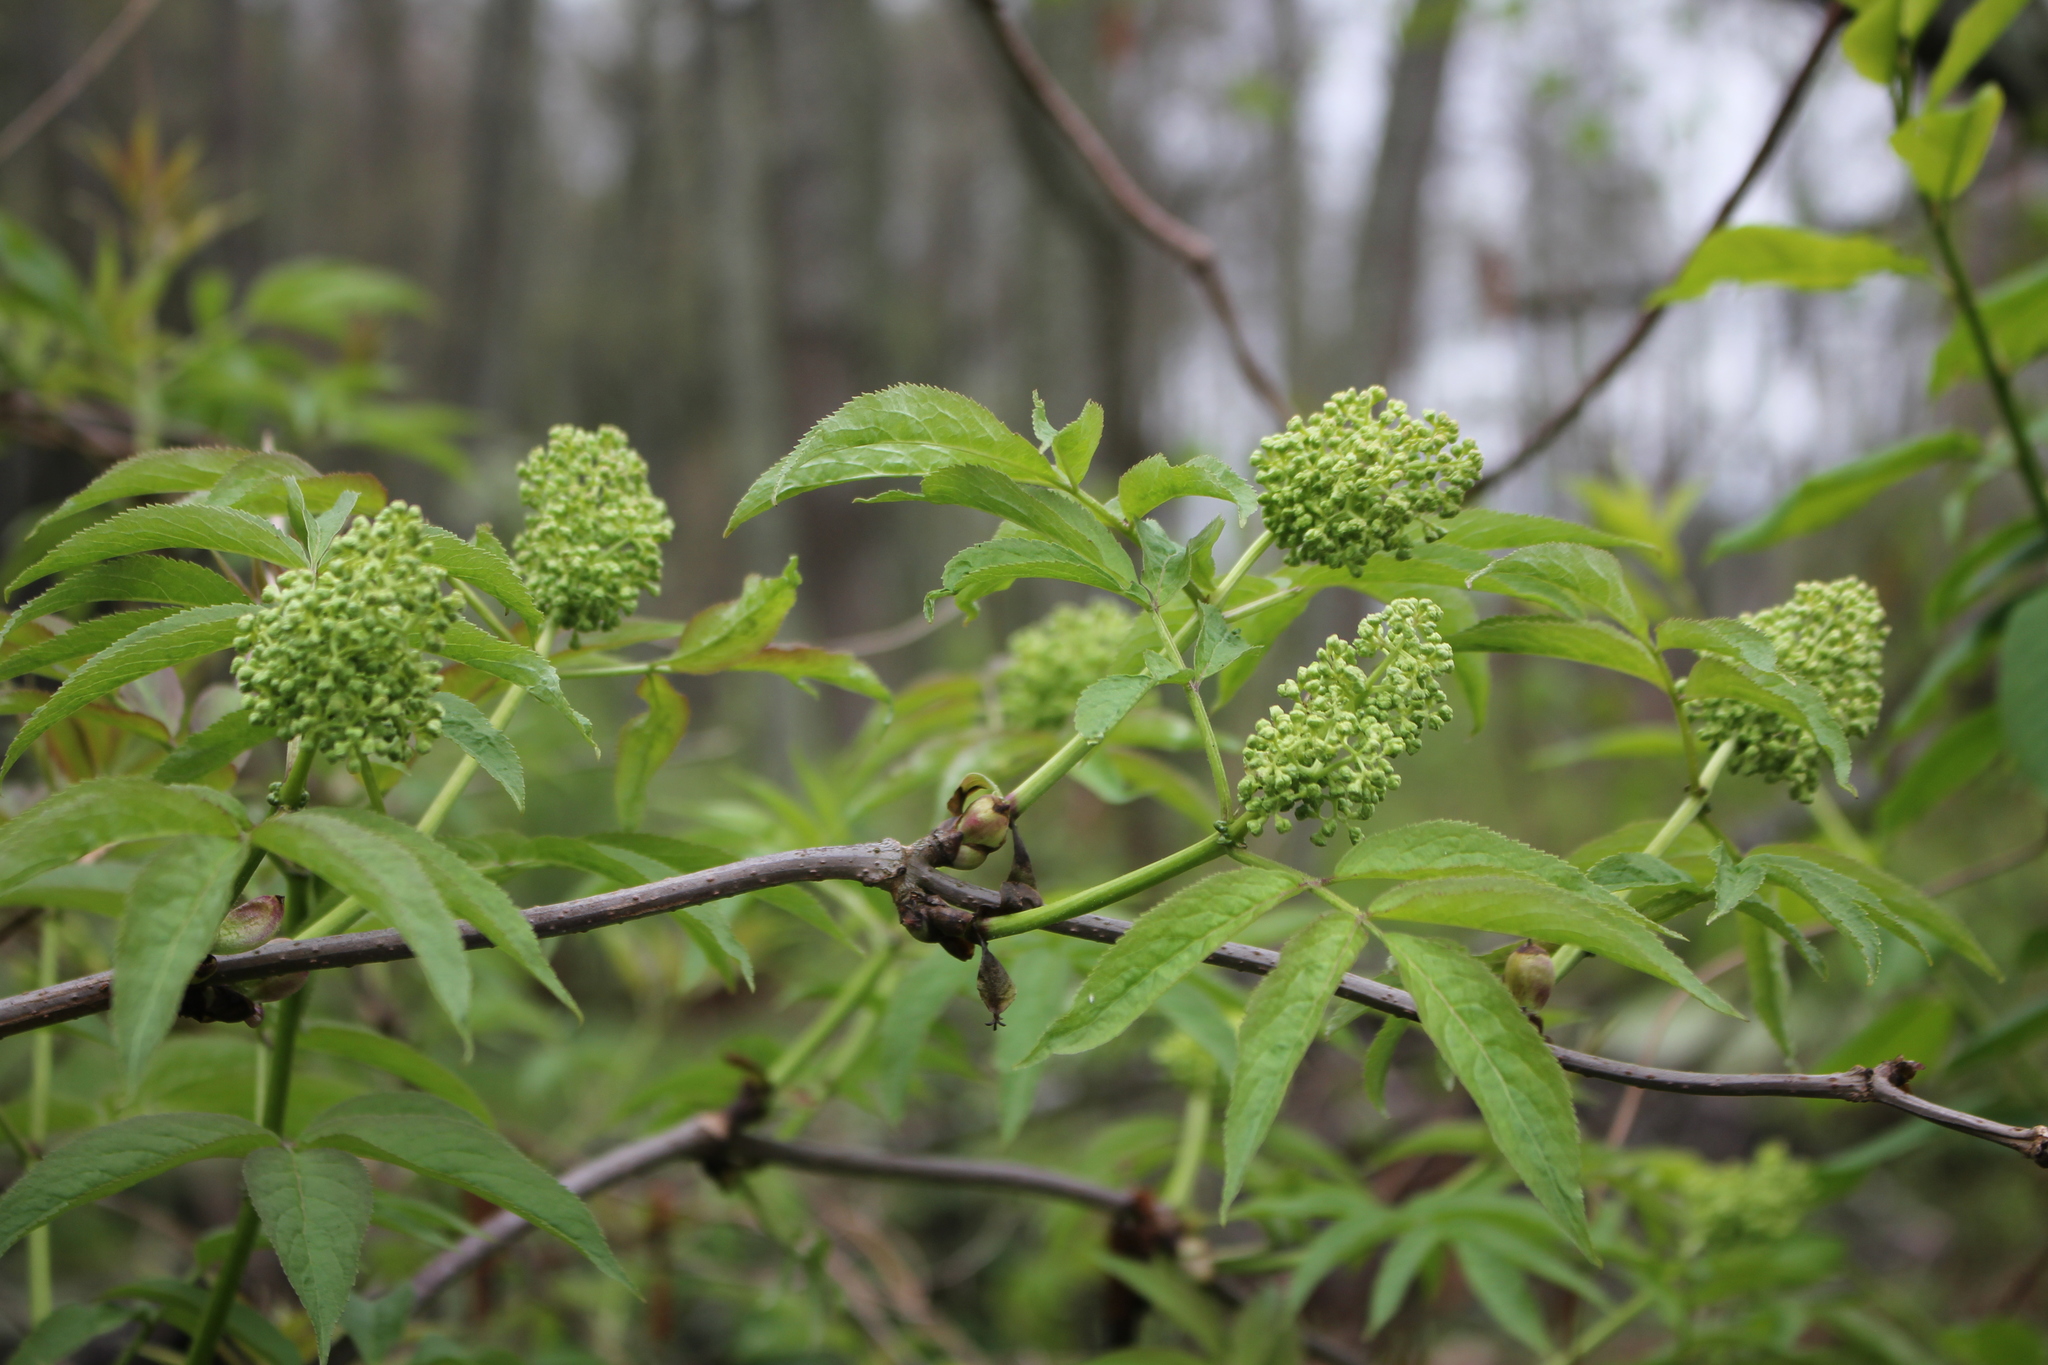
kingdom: Plantae
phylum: Tracheophyta
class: Magnoliopsida
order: Dipsacales
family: Viburnaceae
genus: Sambucus
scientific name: Sambucus racemosa
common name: Red-berried elder
